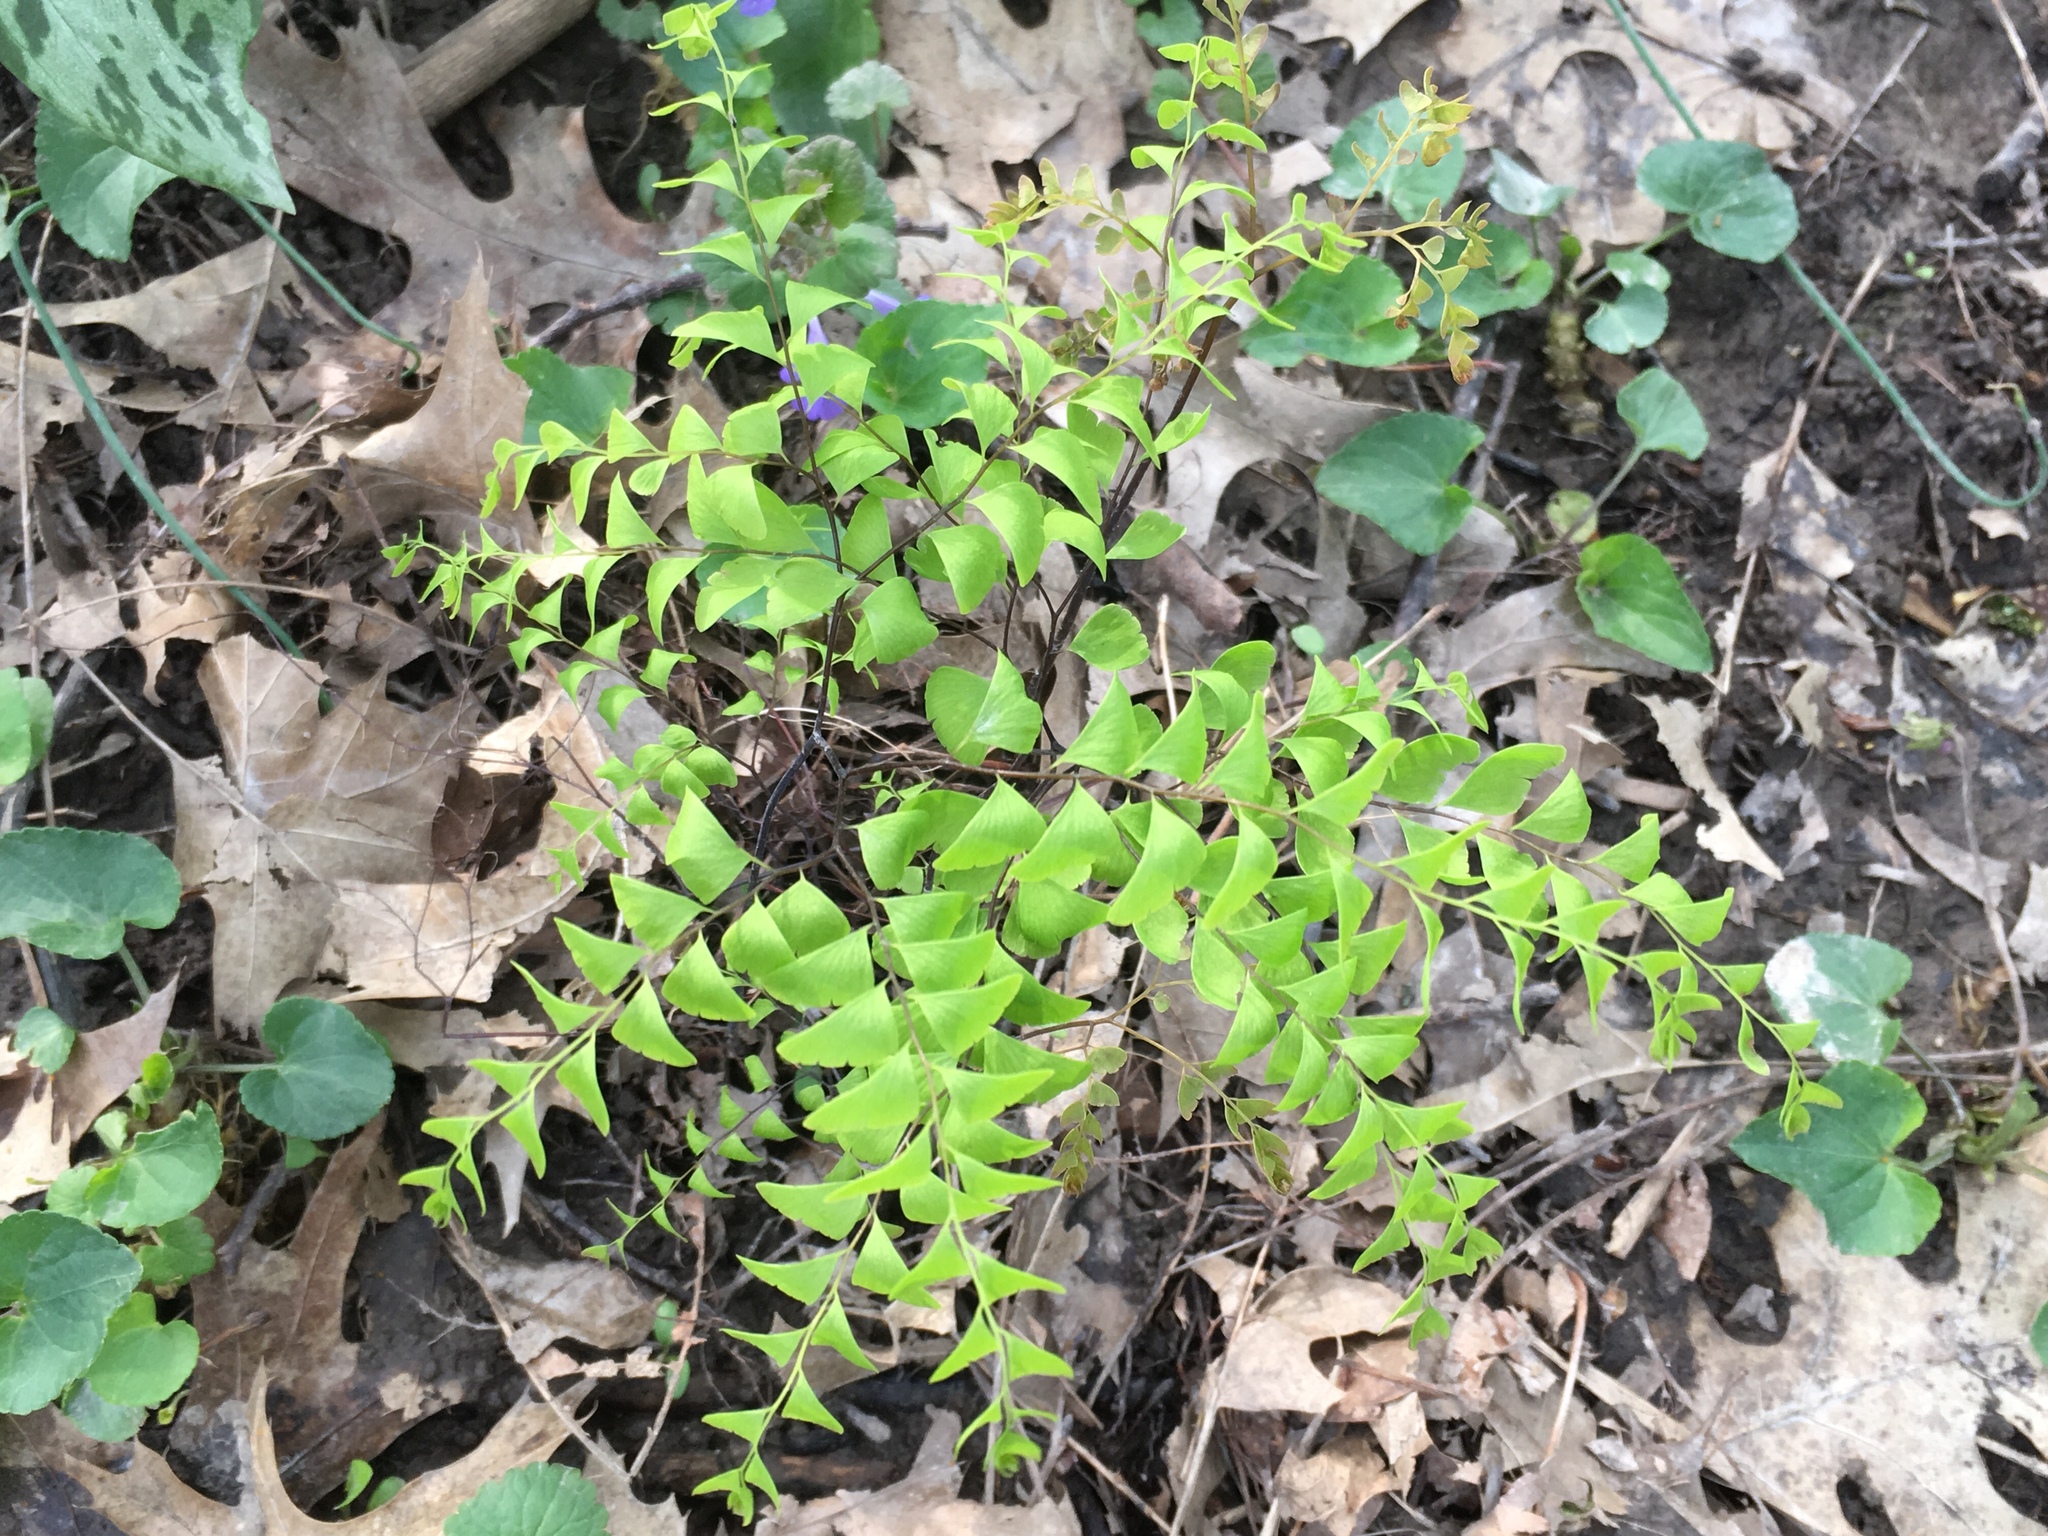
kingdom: Plantae
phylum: Tracheophyta
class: Polypodiopsida
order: Polypodiales
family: Pteridaceae
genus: Adiantum
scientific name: Adiantum pedatum
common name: Five-finger fern
